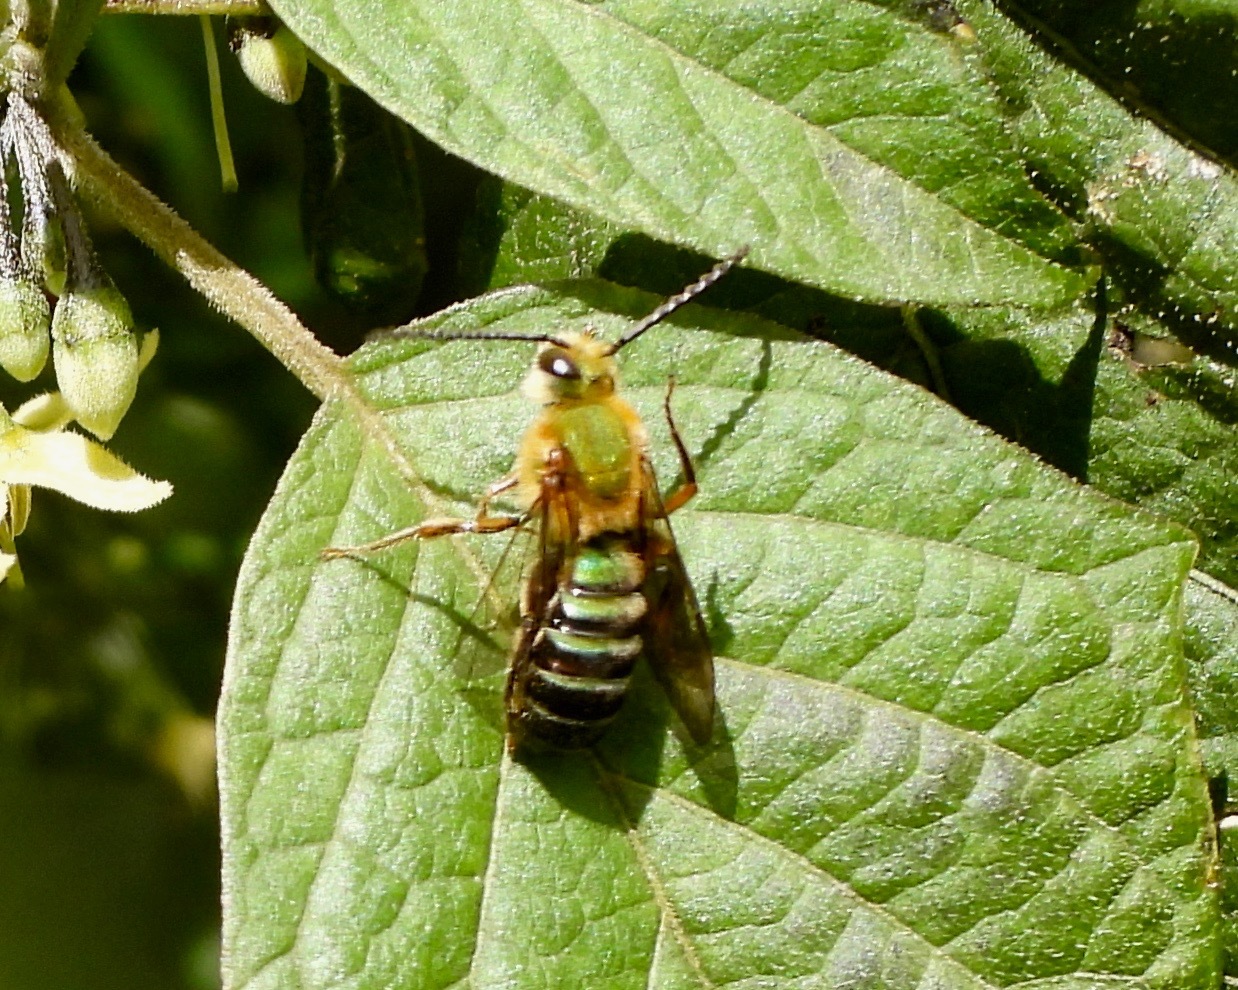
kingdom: Animalia
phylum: Arthropoda
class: Insecta
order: Hymenoptera
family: Halictidae
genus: Dinagapostemon
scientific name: Dinagapostemon sicheli
